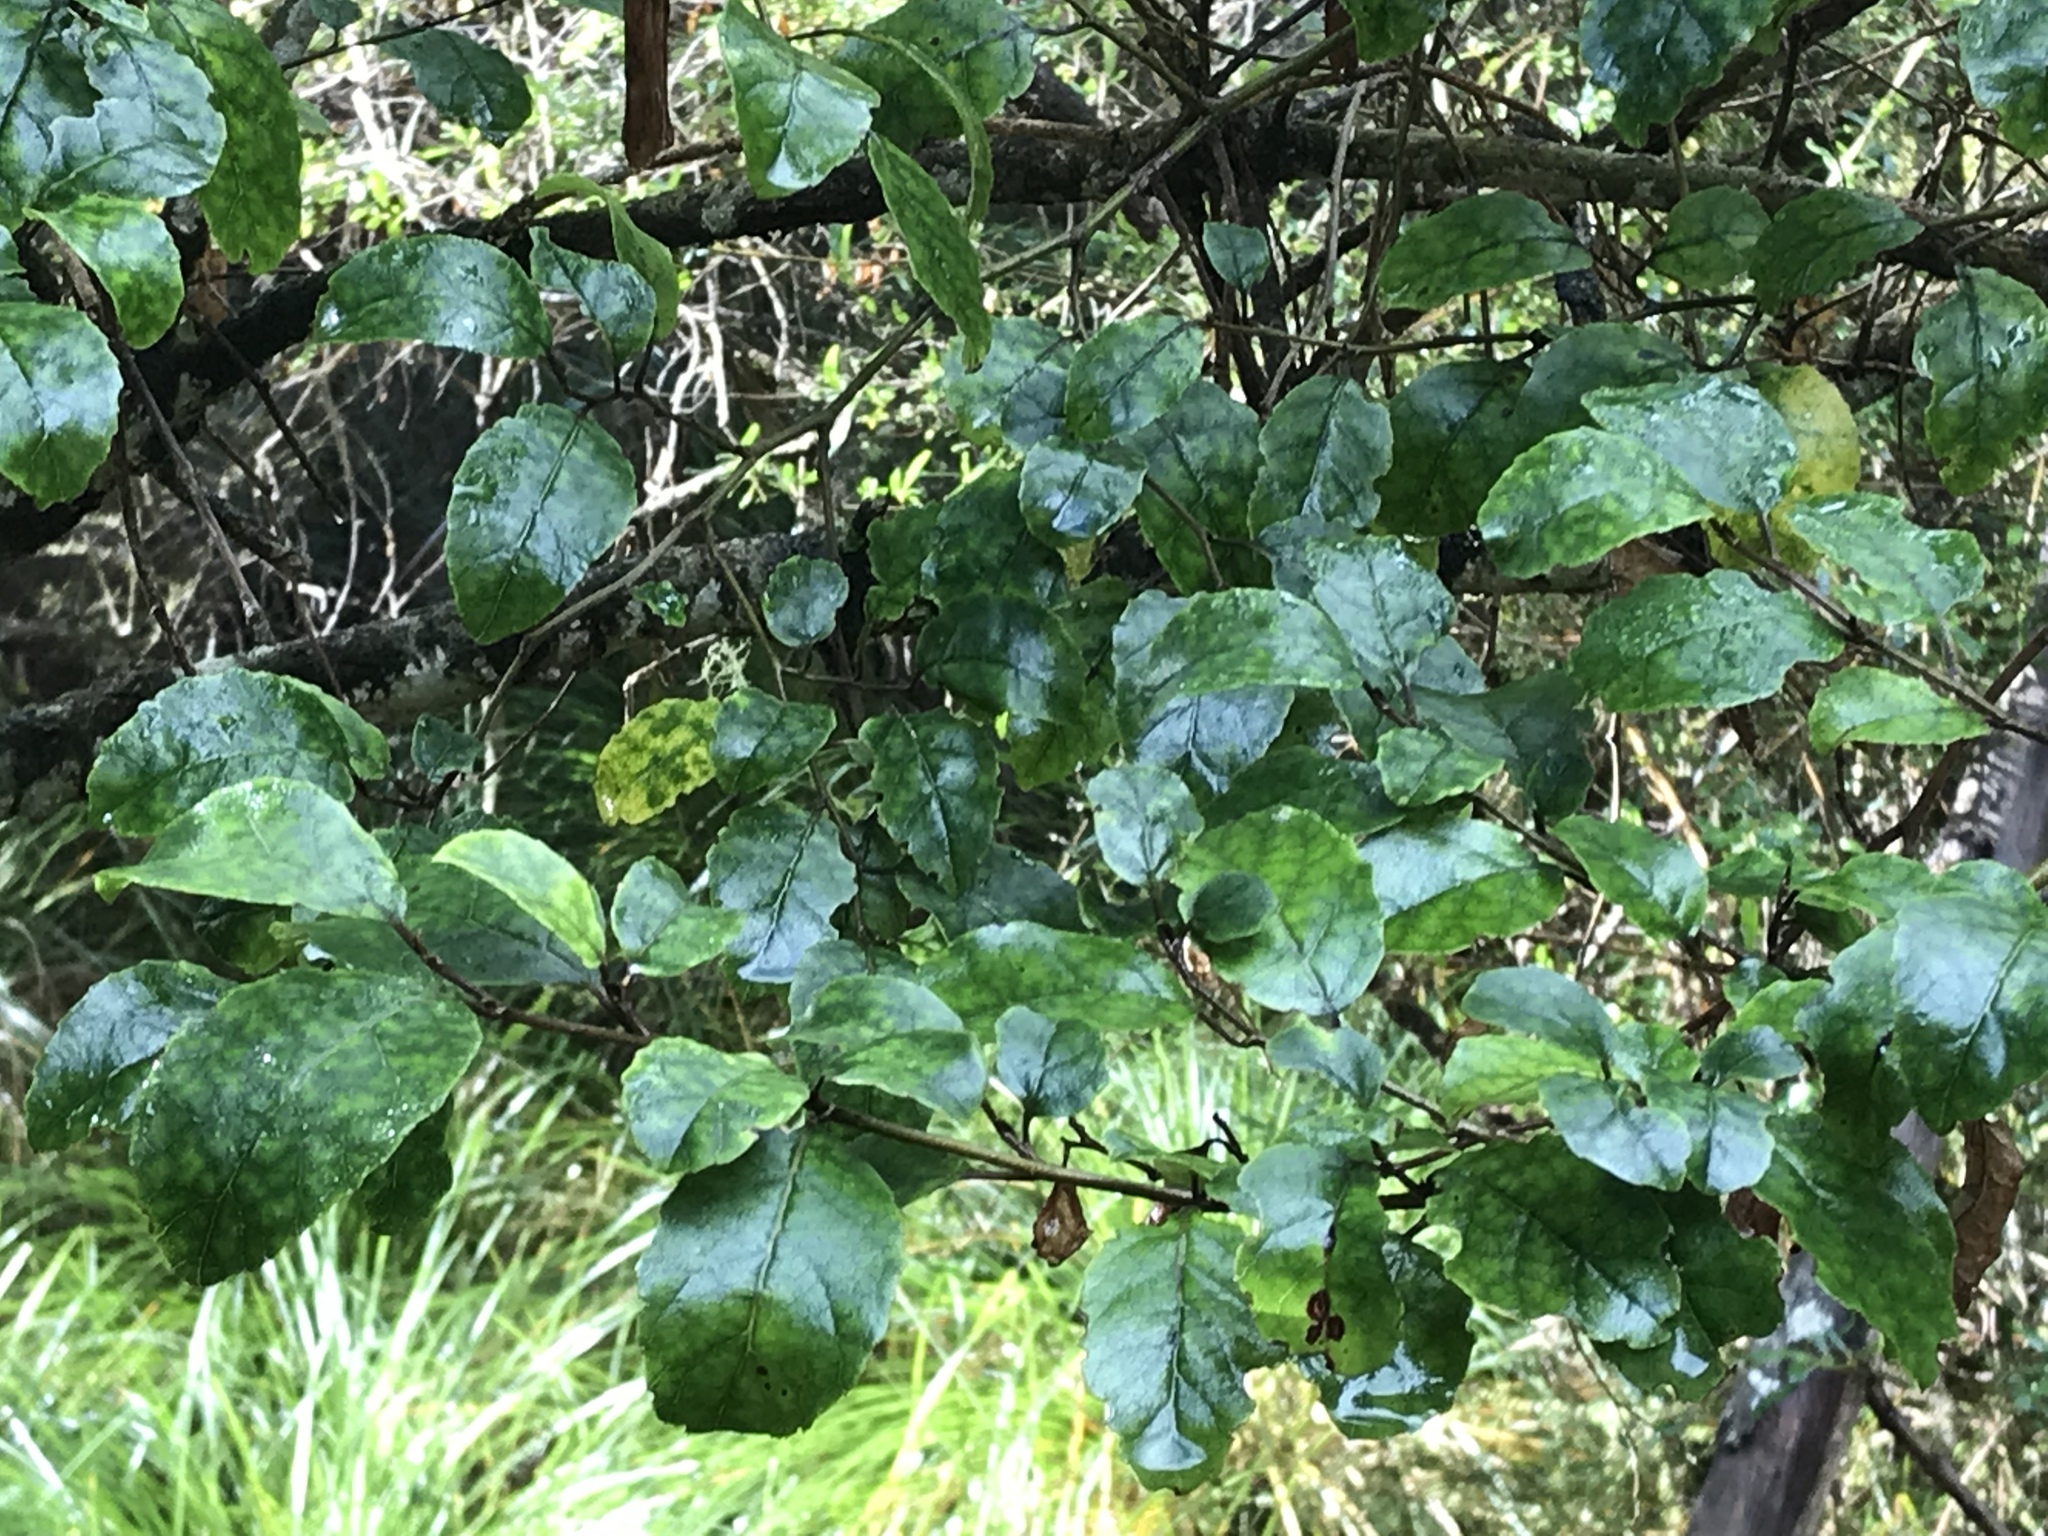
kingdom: Plantae
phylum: Tracheophyta
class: Magnoliopsida
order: Asterales
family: Rousseaceae
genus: Carpodetus
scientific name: Carpodetus serratus
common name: White mapau
